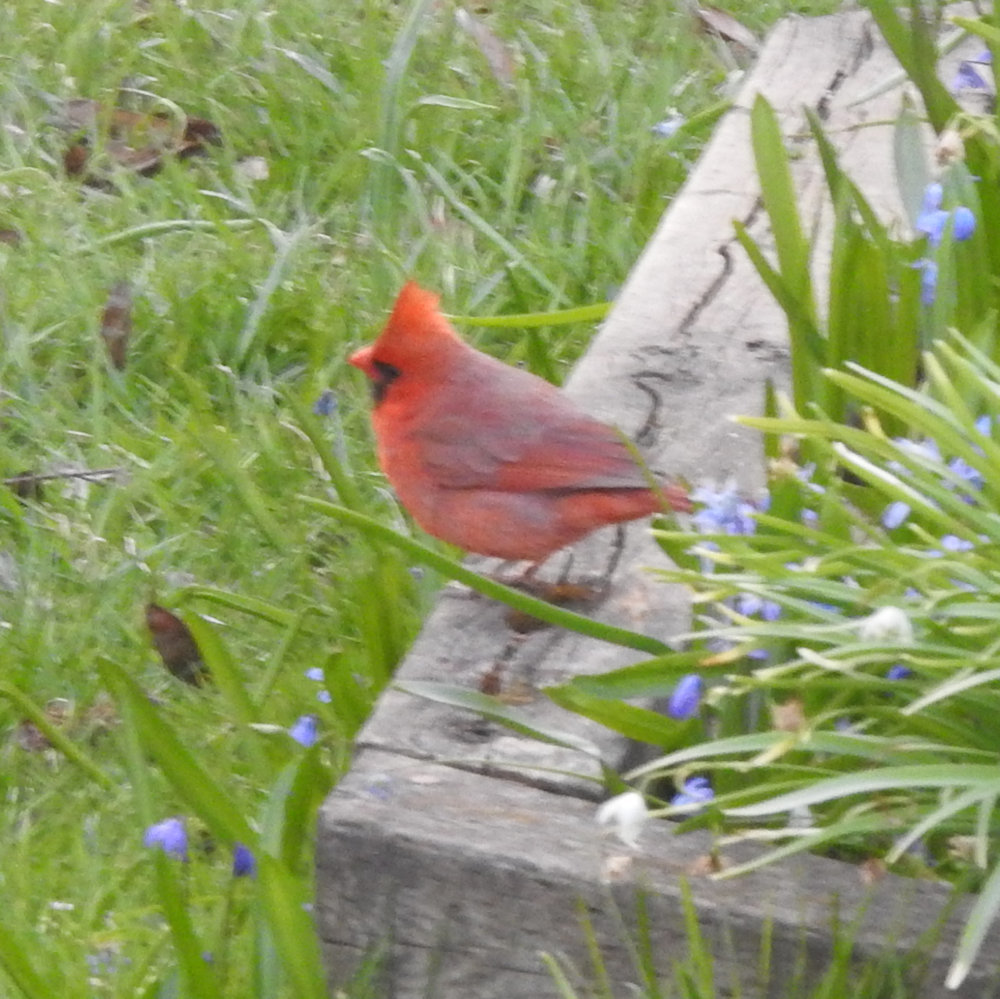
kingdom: Animalia
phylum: Chordata
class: Aves
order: Passeriformes
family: Cardinalidae
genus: Cardinalis
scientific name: Cardinalis cardinalis
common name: Northern cardinal
